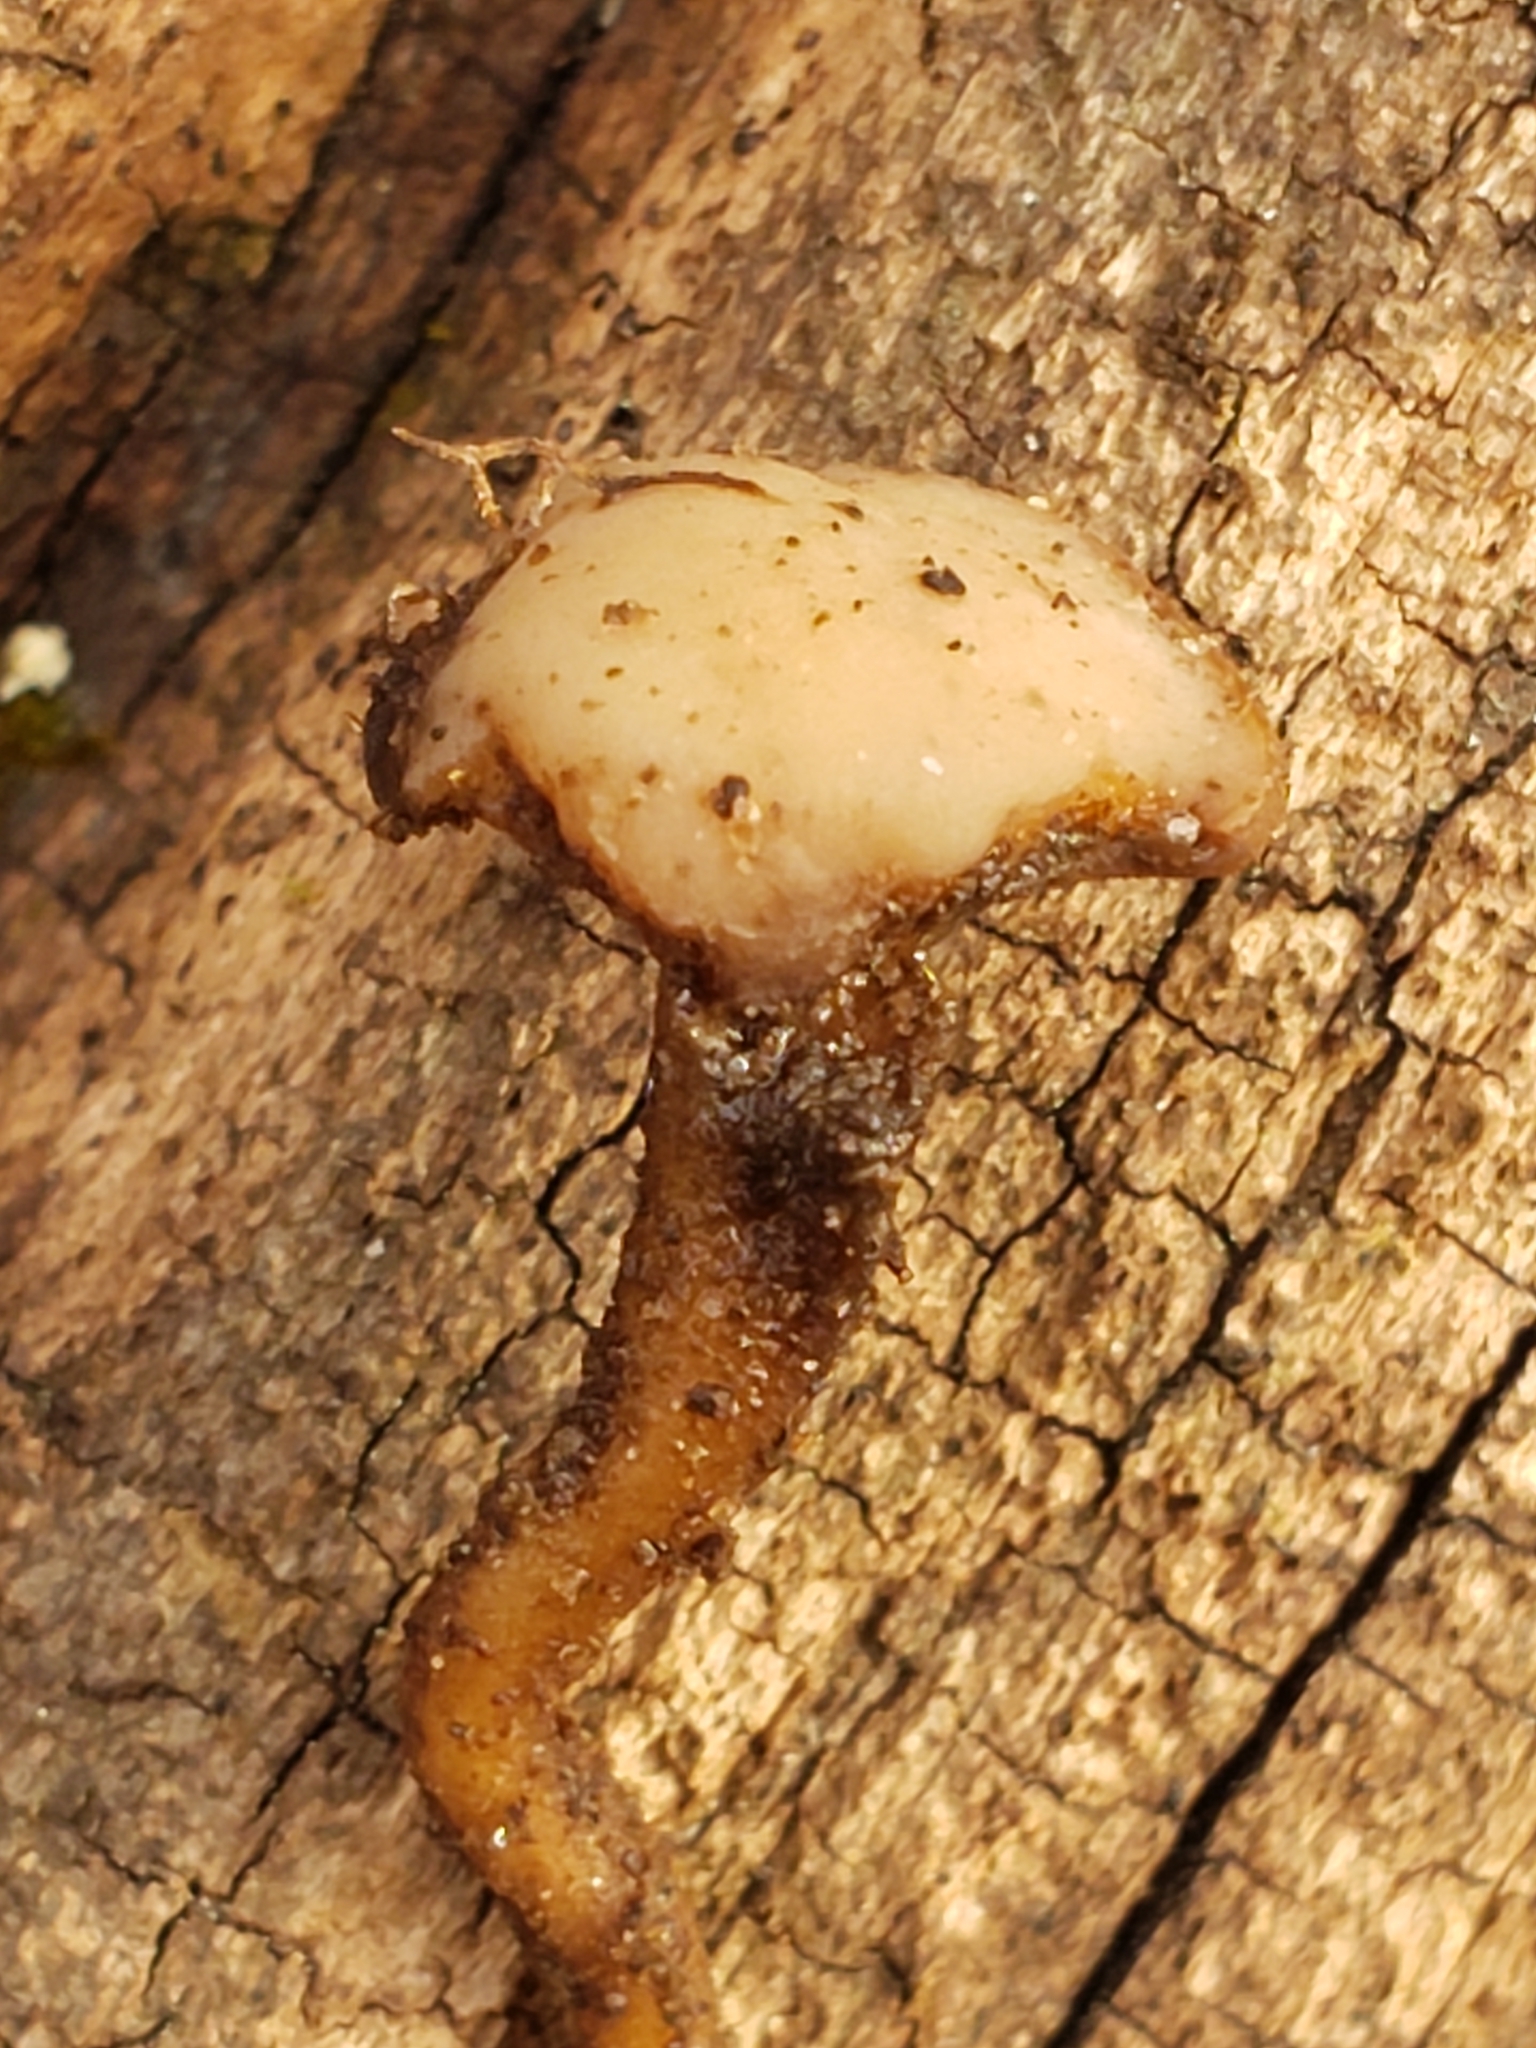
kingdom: Fungi
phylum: Ascomycota
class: Leotiomycetes
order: Helotiales
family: Helotiaceae
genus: Tatraea
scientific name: Tatraea macrospora
